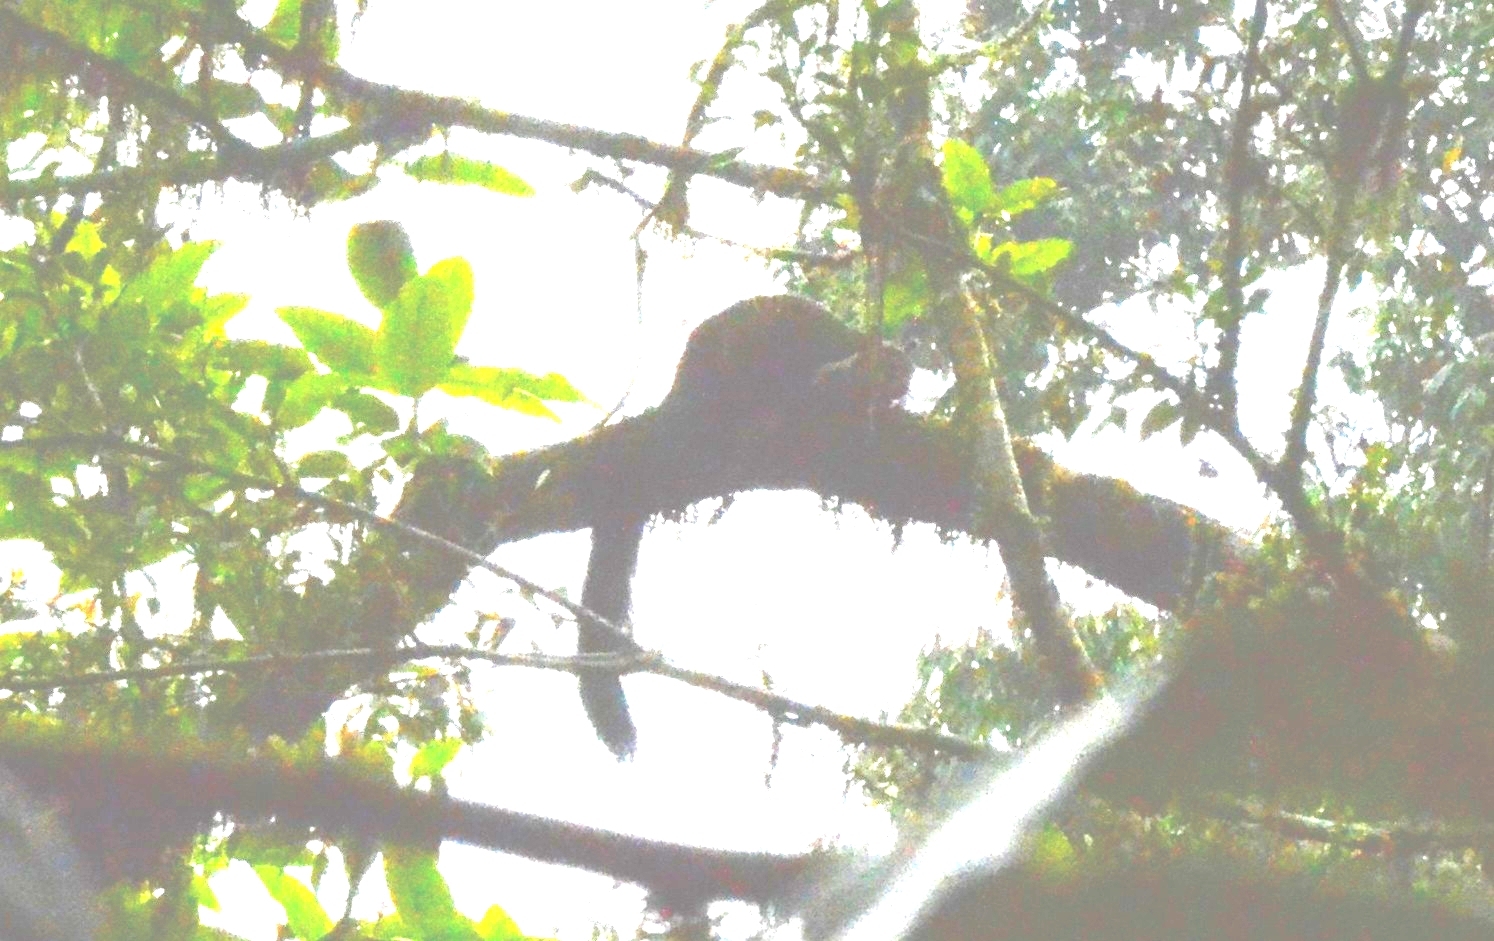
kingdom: Animalia
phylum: Chordata
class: Mammalia
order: Rodentia
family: Sciuridae
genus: Ratufa
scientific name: Ratufa indica
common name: Indian giant squirrel
